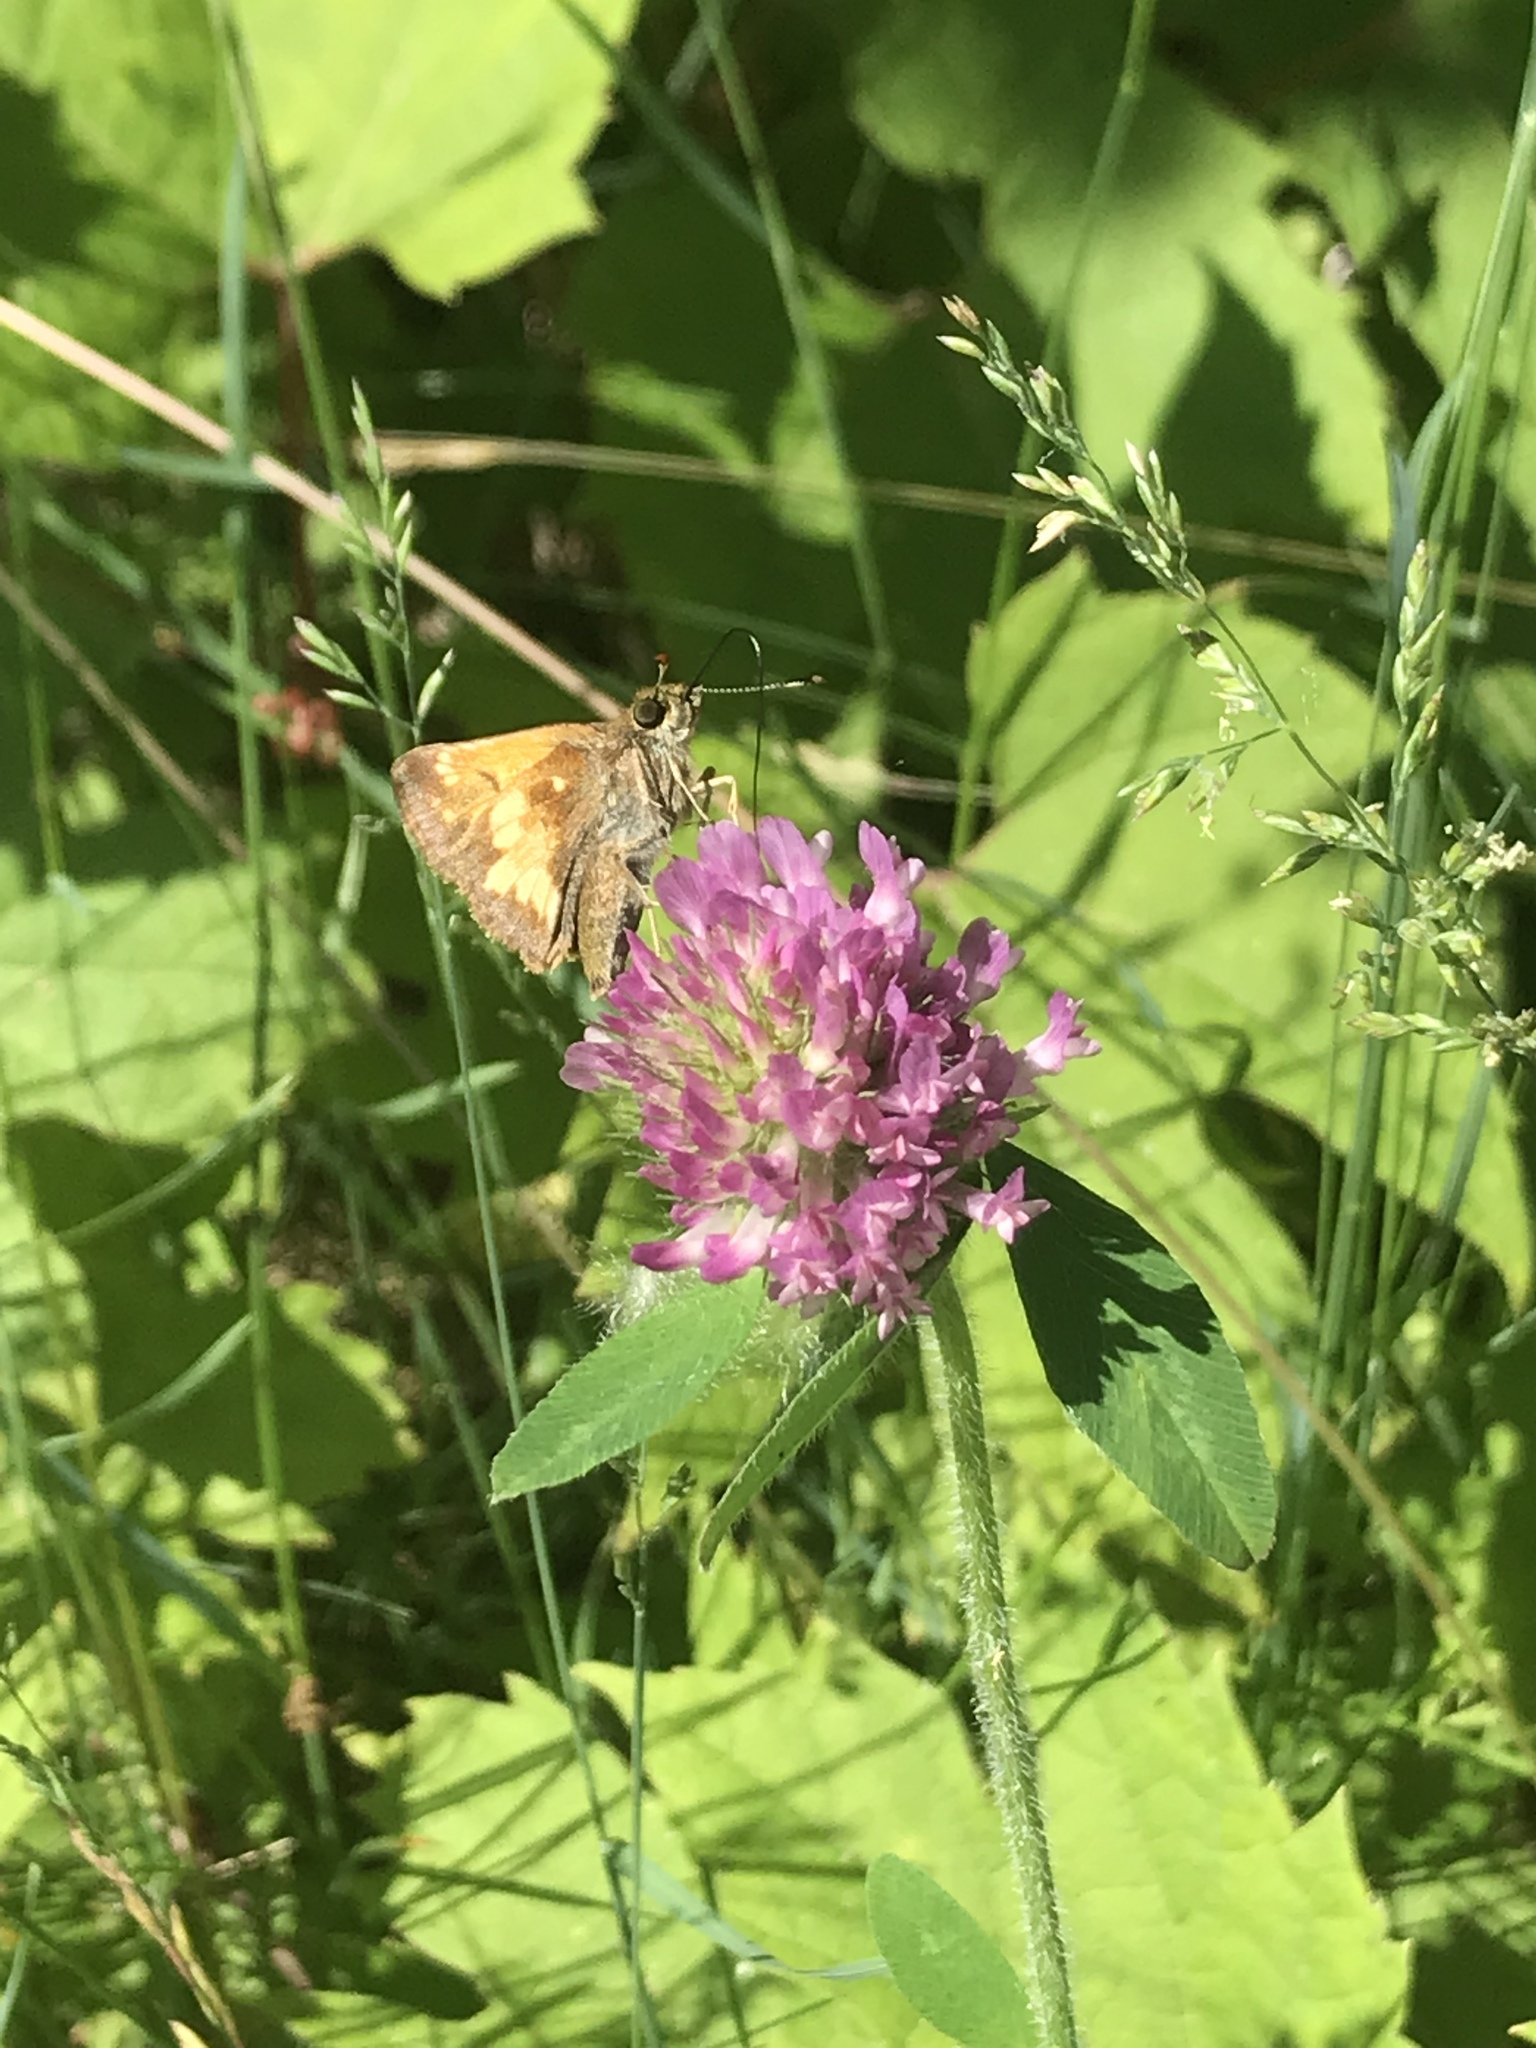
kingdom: Animalia
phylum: Arthropoda
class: Insecta
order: Lepidoptera
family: Hesperiidae
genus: Lon
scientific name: Lon hobomok
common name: Hobomok skipper
